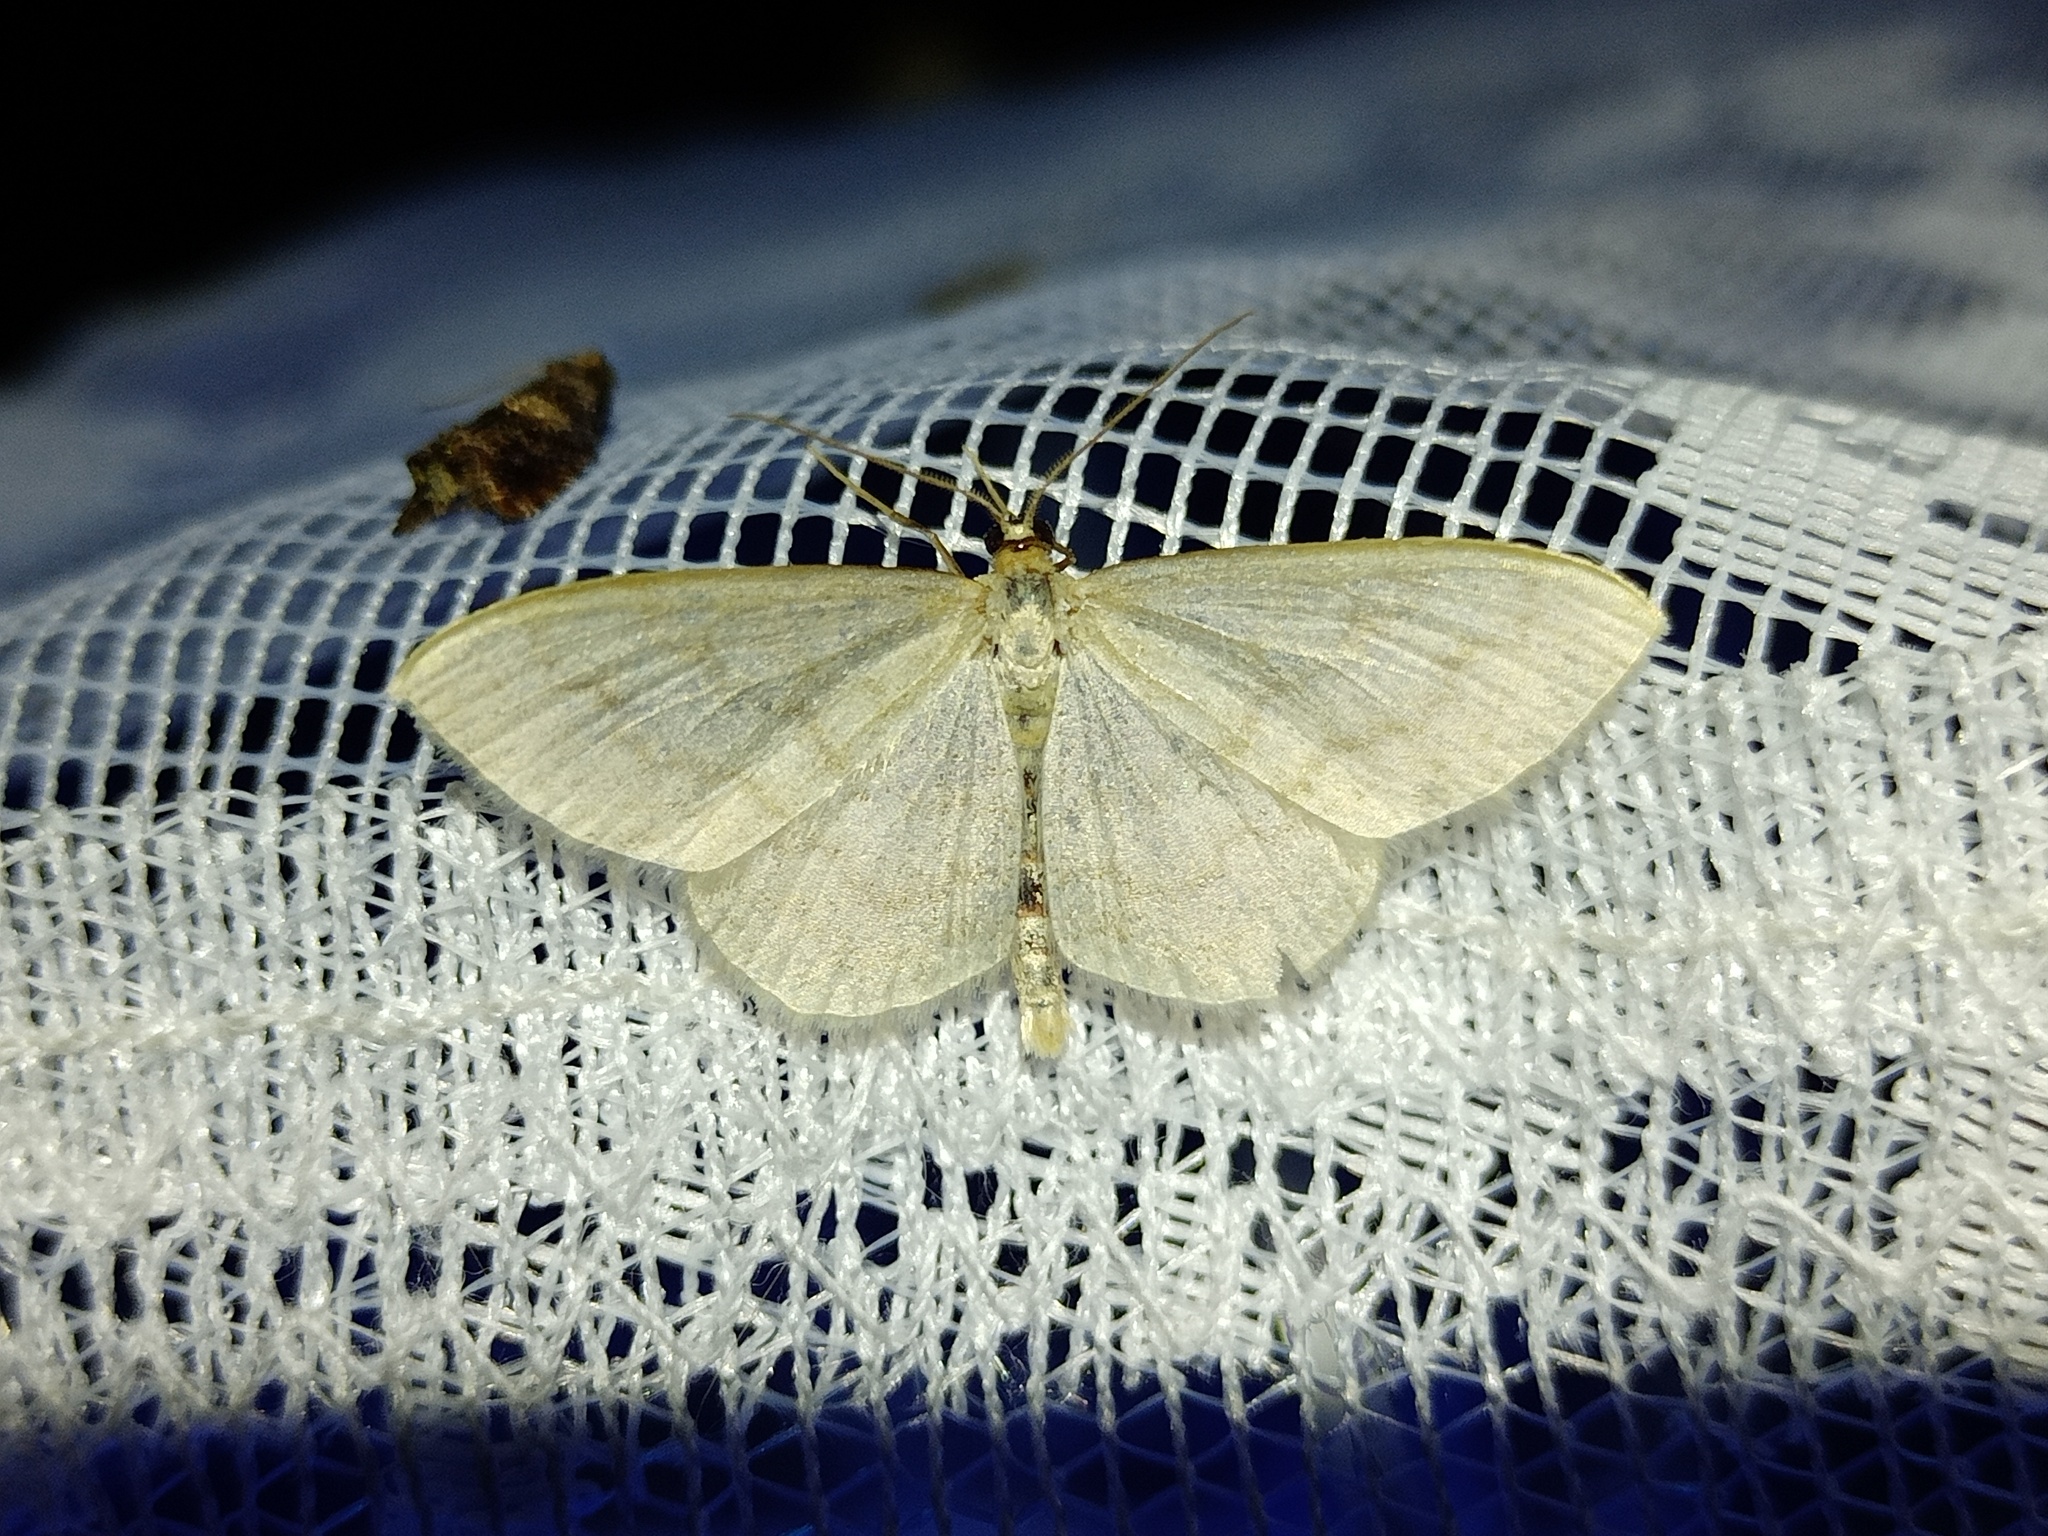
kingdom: Animalia
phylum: Arthropoda
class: Insecta
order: Lepidoptera
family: Geometridae
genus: Scopula
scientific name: Scopula floslactata
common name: Cream wave
